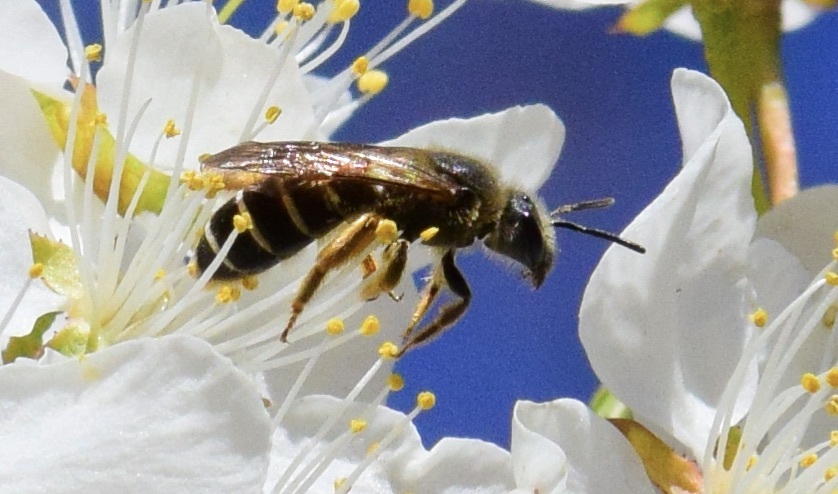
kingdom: Animalia
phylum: Arthropoda
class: Insecta
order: Hymenoptera
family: Halictidae
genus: Halictus
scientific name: Halictus rubicundus
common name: Orange-legged furrow bee
